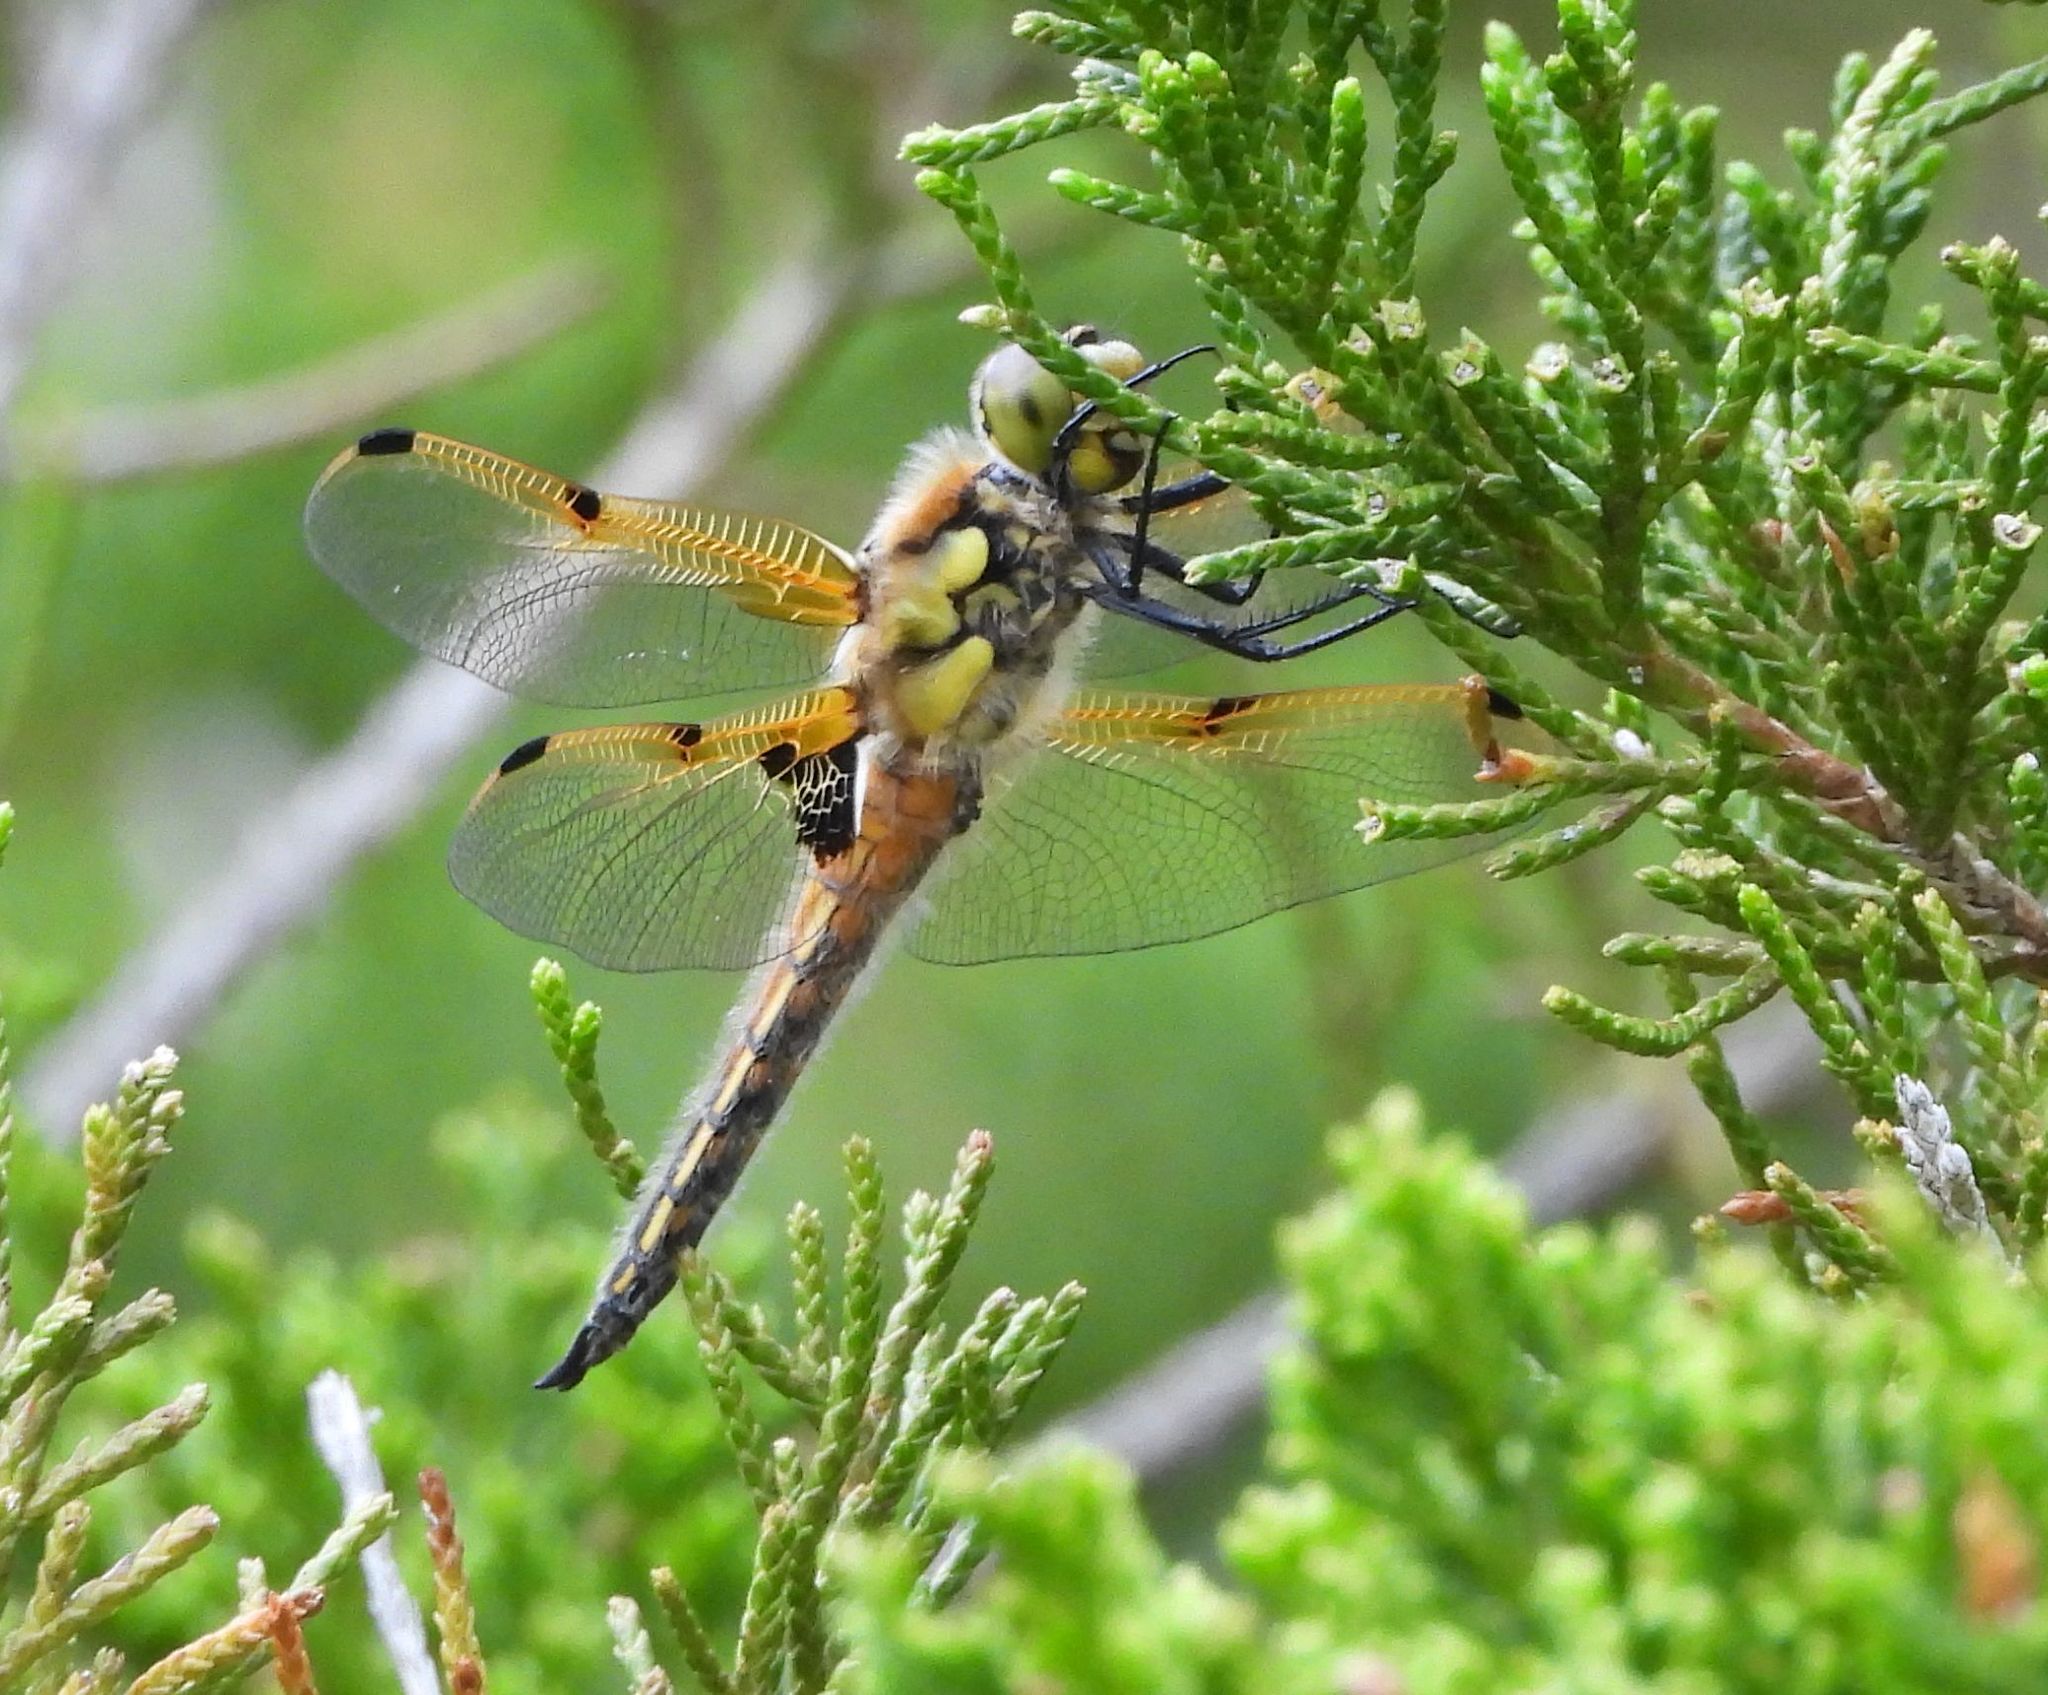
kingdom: Animalia
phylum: Arthropoda
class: Insecta
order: Odonata
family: Libellulidae
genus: Libellula
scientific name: Libellula quadrimaculata
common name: Four-spotted chaser
